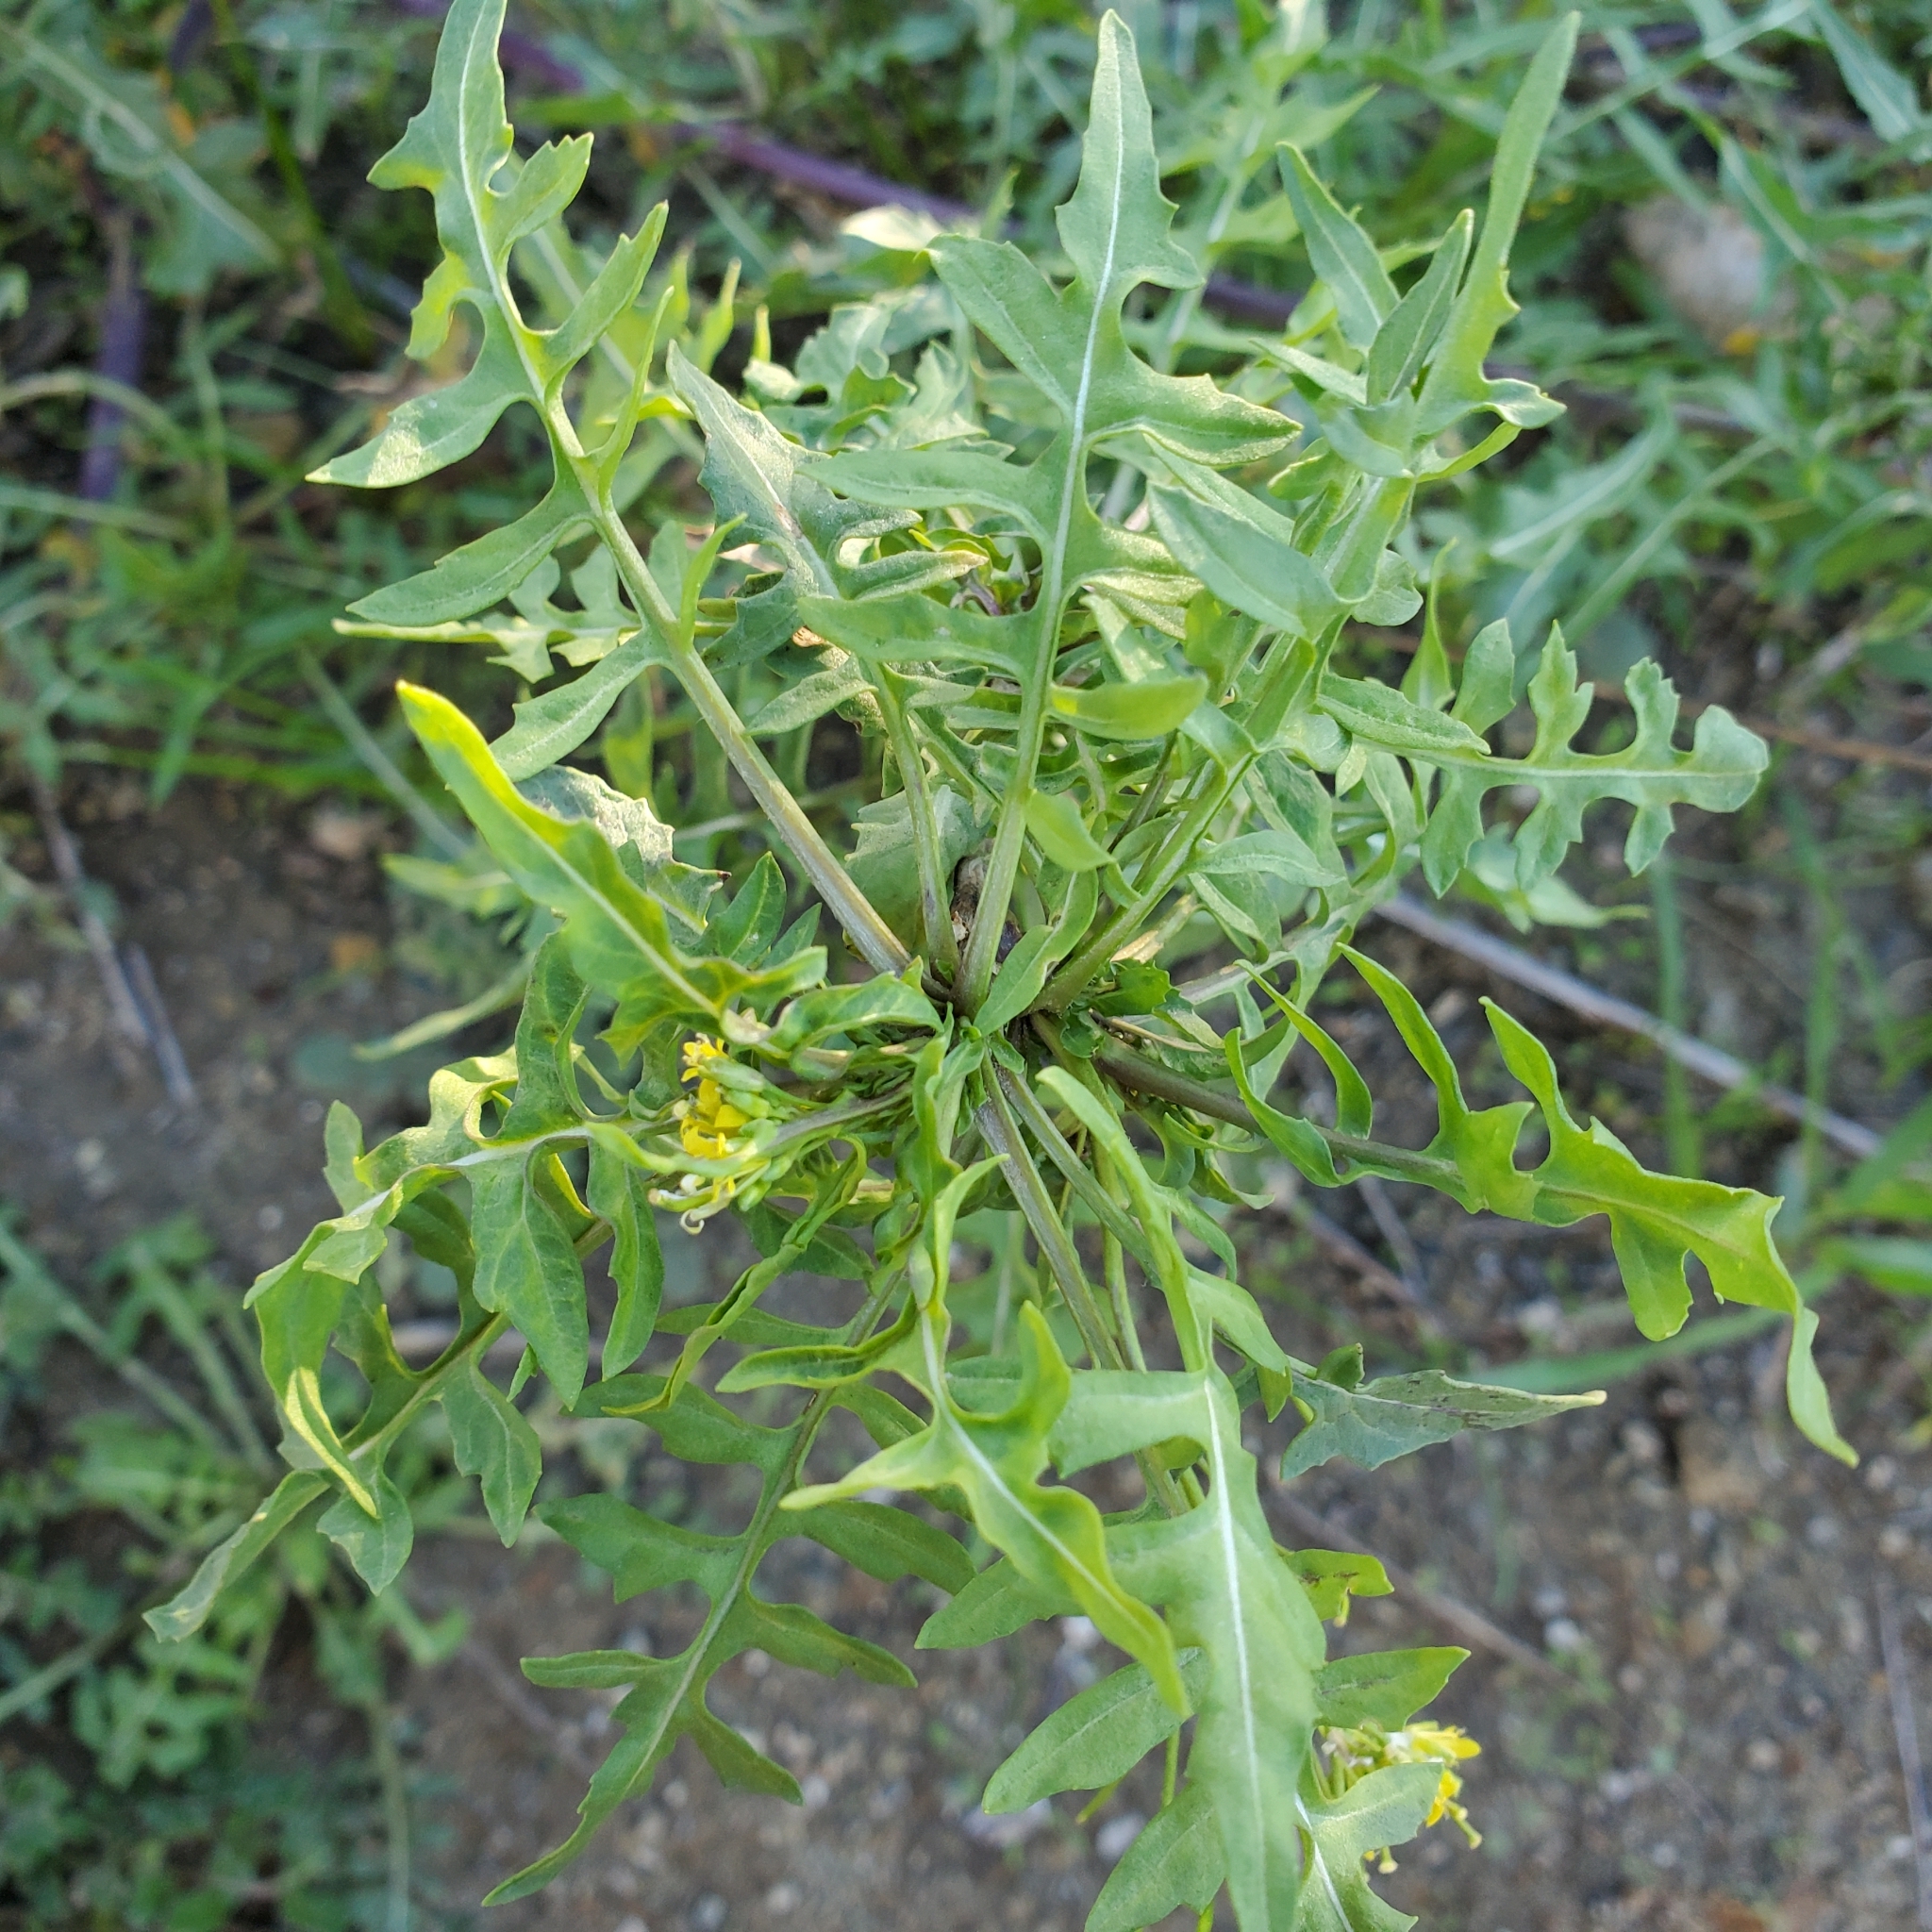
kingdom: Plantae
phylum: Tracheophyta
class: Magnoliopsida
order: Brassicales
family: Brassicaceae
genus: Sisymbrium
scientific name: Sisymbrium irio
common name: London rocket
